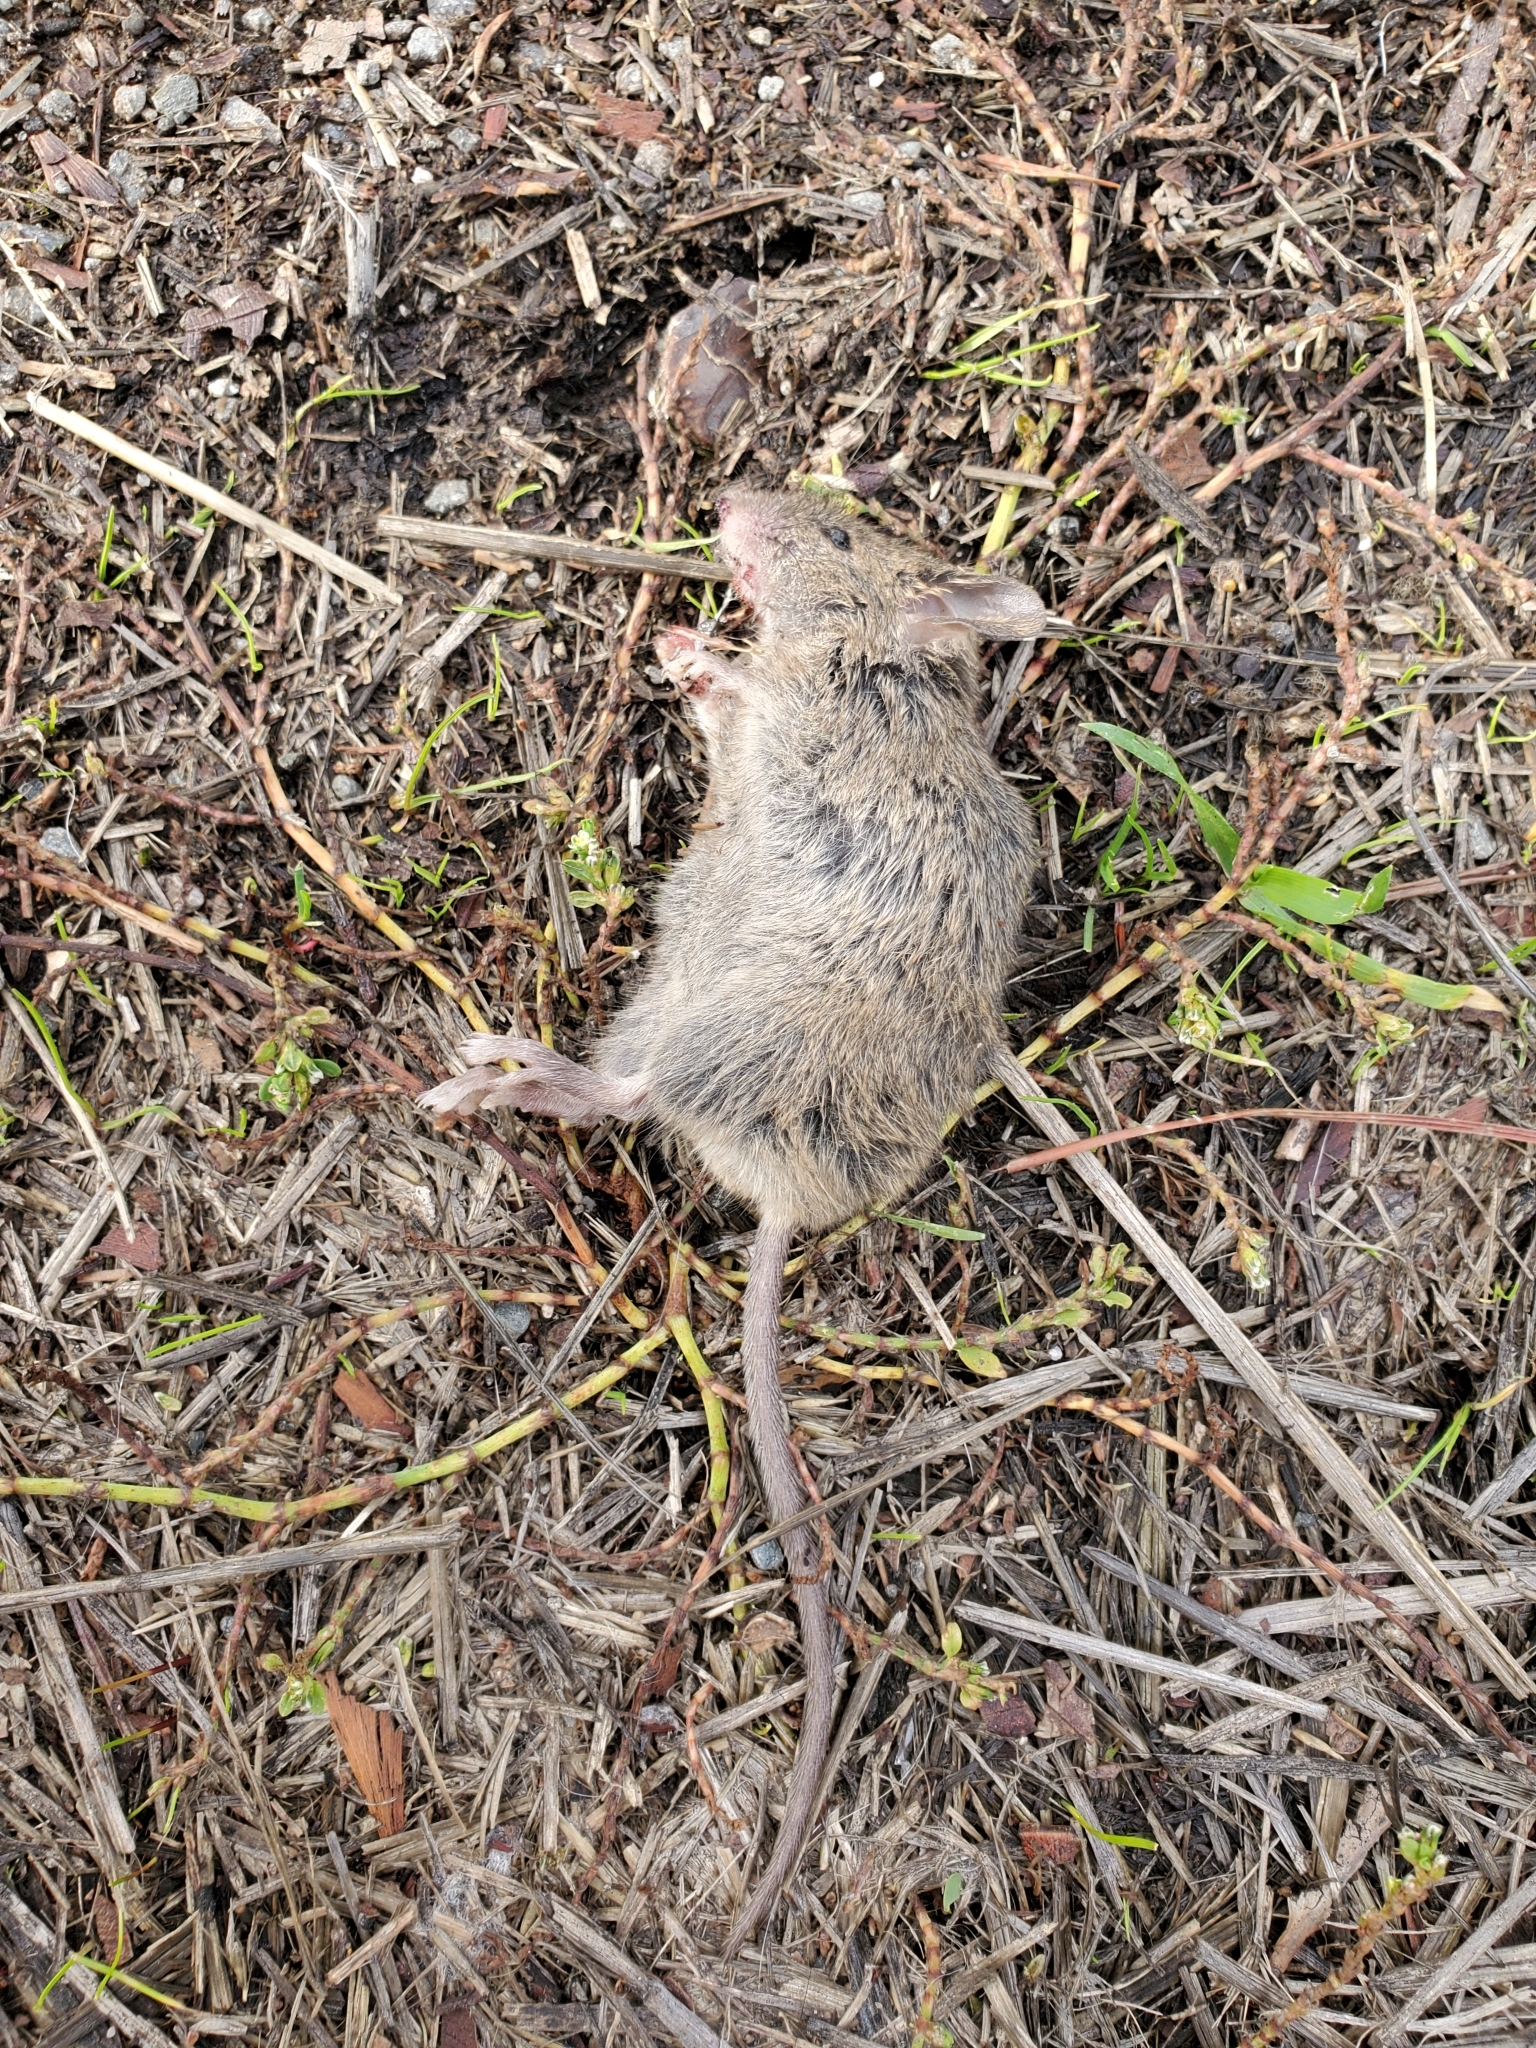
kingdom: Animalia
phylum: Chordata
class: Mammalia
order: Rodentia
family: Muridae
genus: Mus
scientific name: Mus musculus
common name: House mouse
